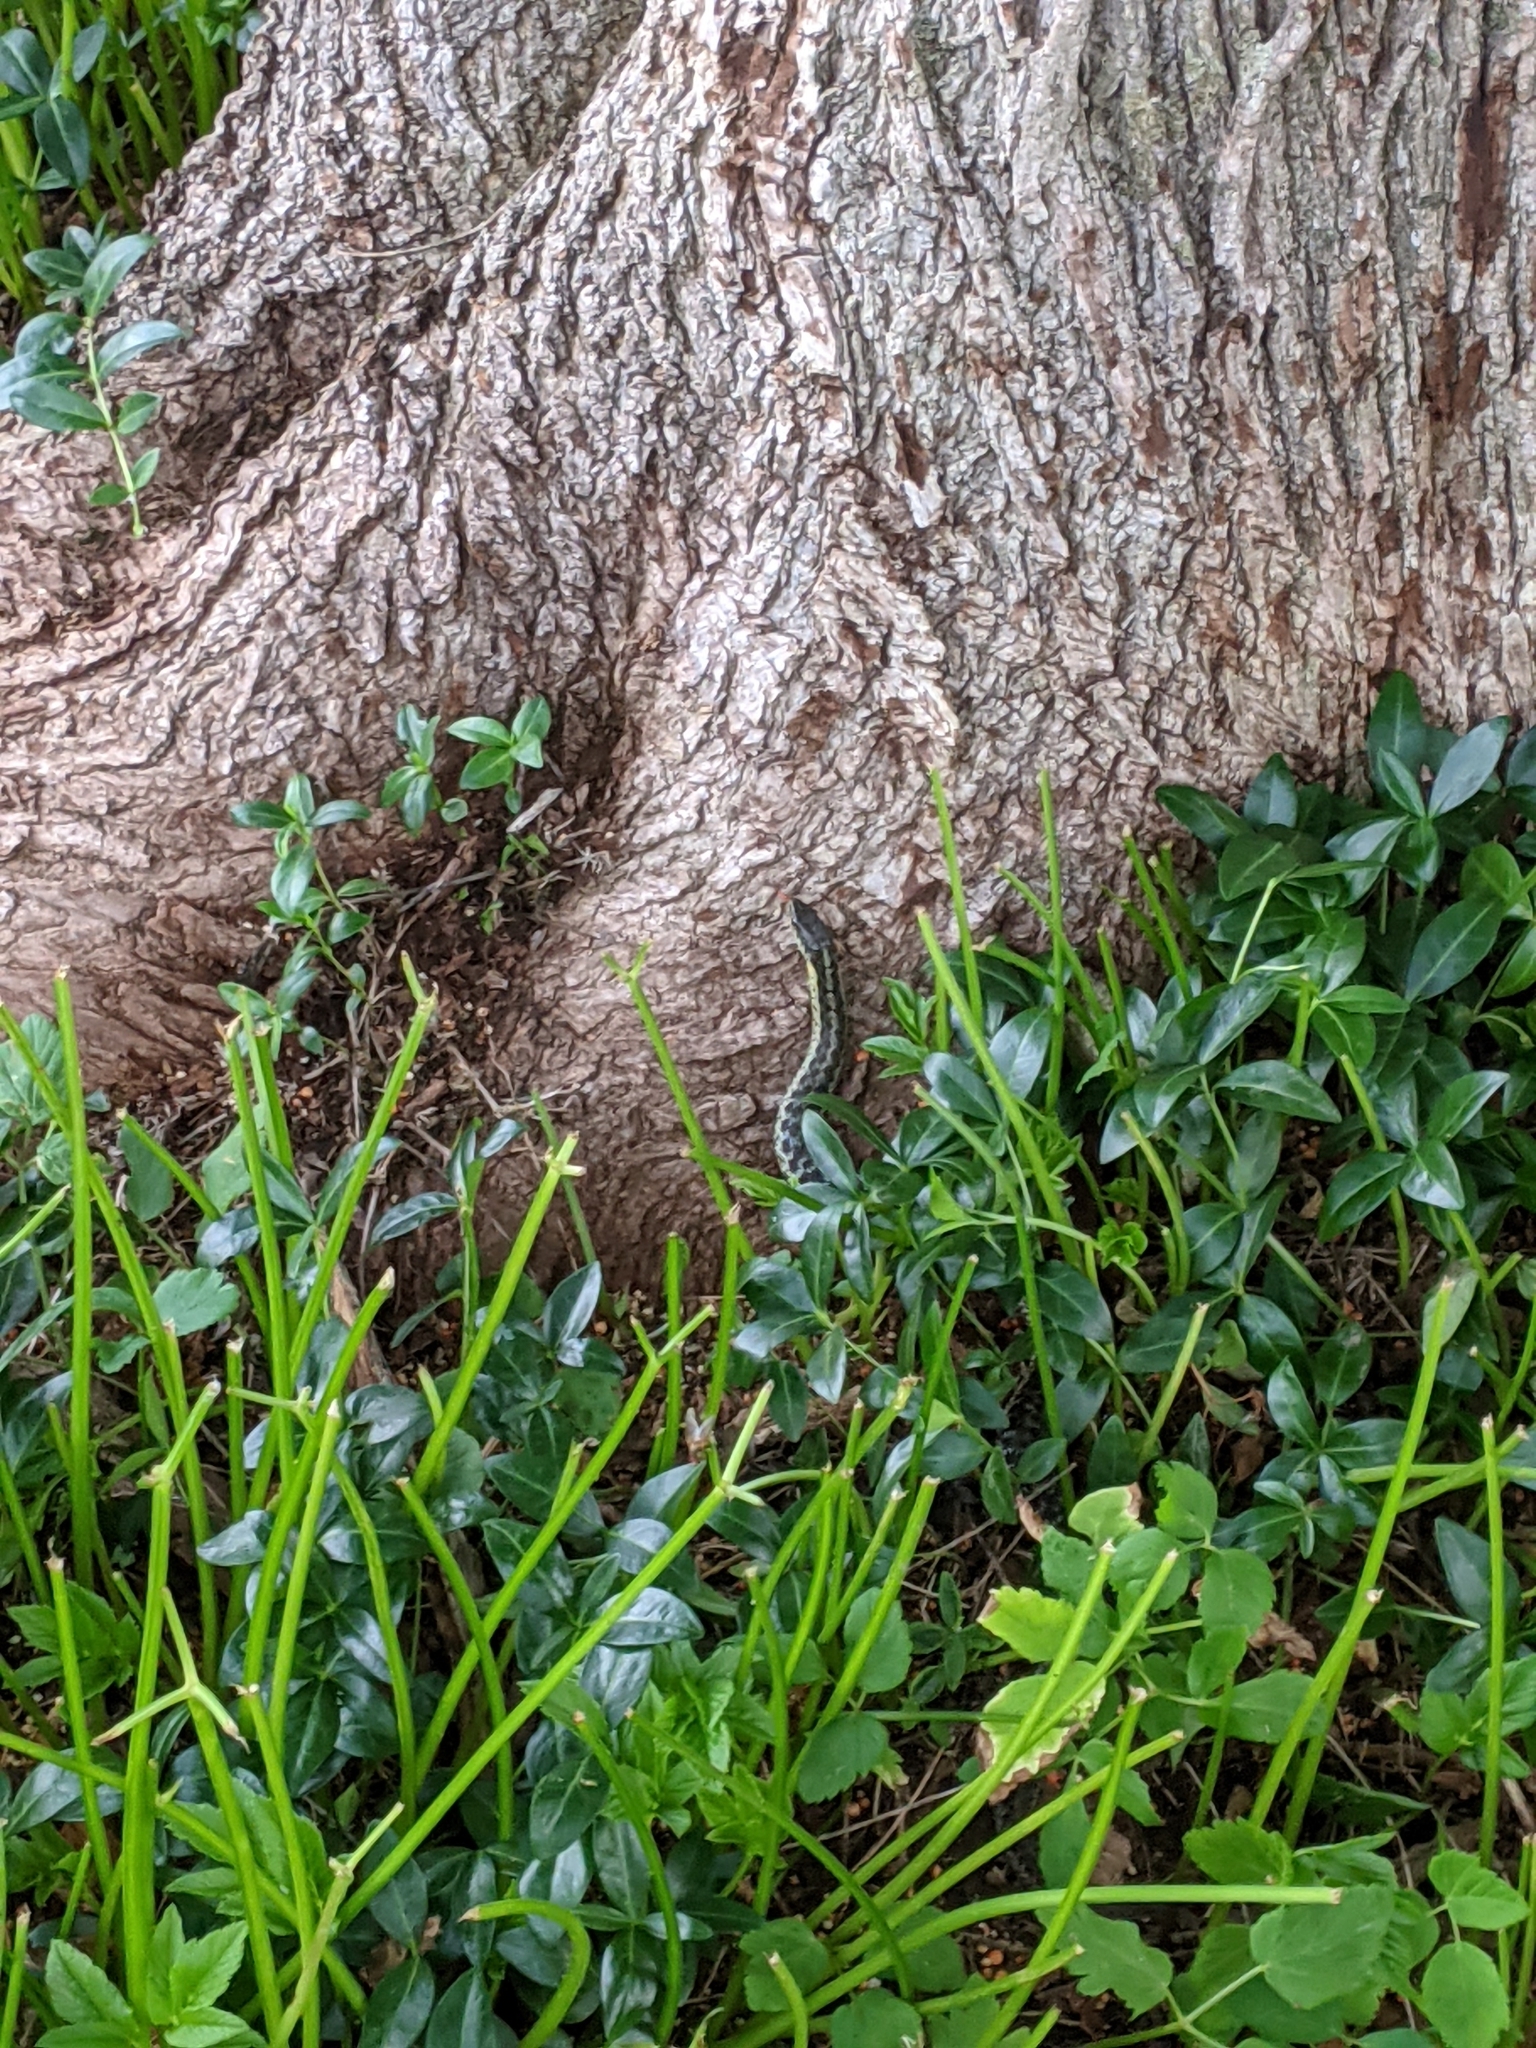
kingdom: Animalia
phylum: Chordata
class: Squamata
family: Colubridae
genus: Thamnophis
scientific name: Thamnophis sirtalis
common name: Common garter snake
